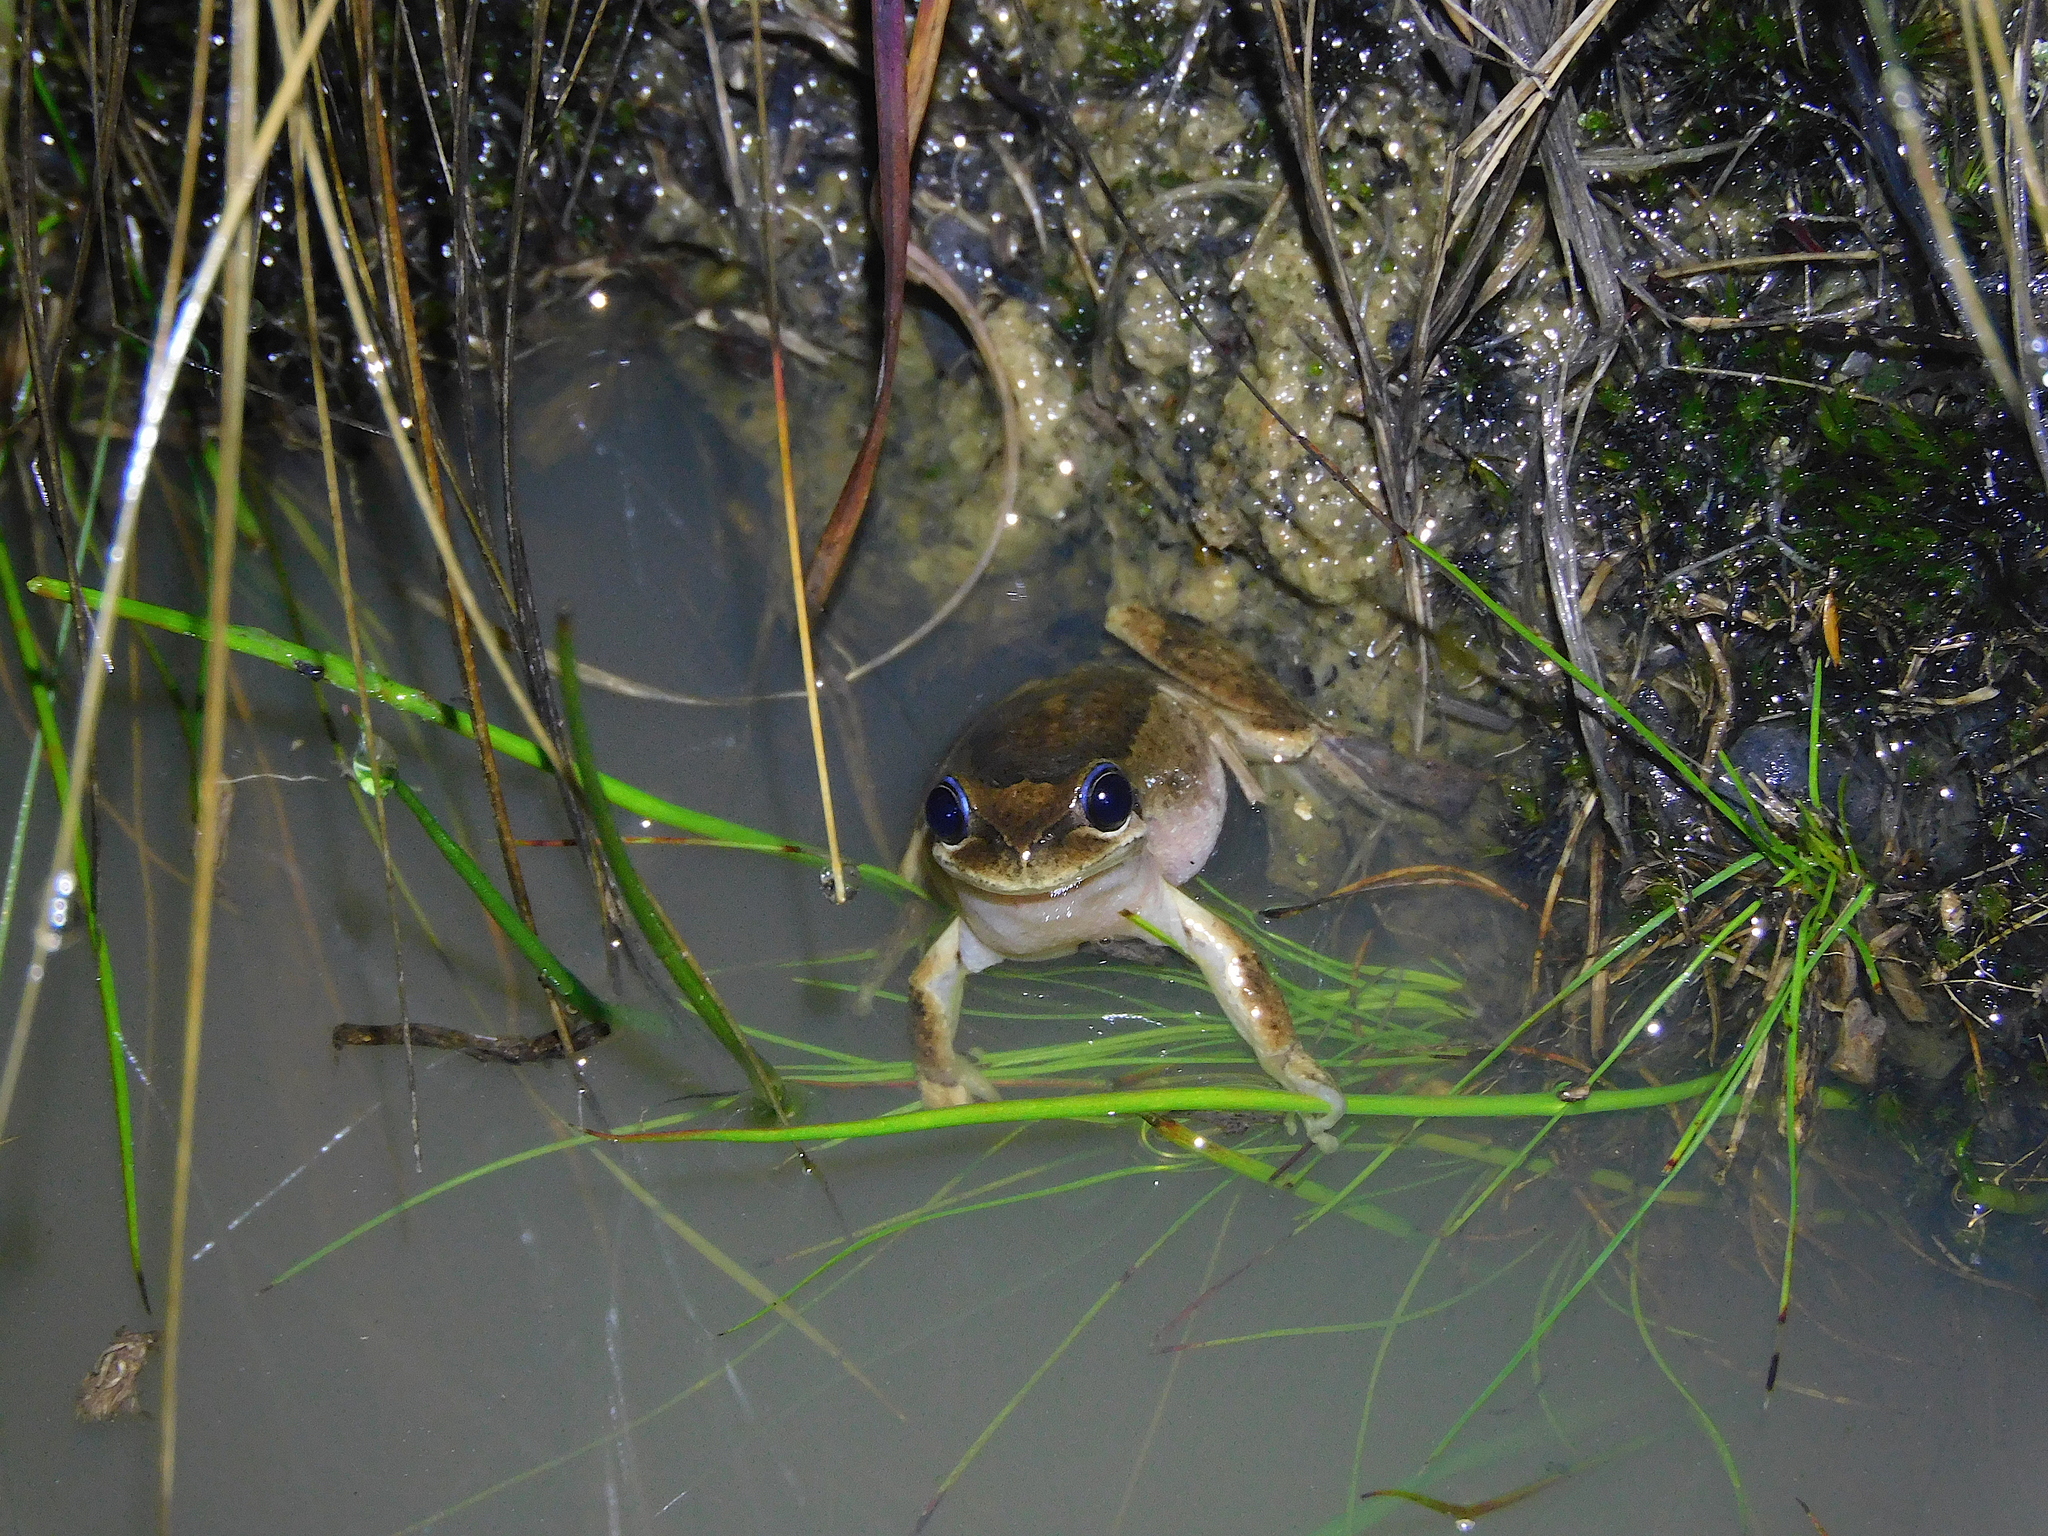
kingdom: Animalia
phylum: Chordata
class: Amphibia
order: Anura
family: Pelodryadidae
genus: Litoria
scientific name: Litoria ewingii
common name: Southern brown tree frog
